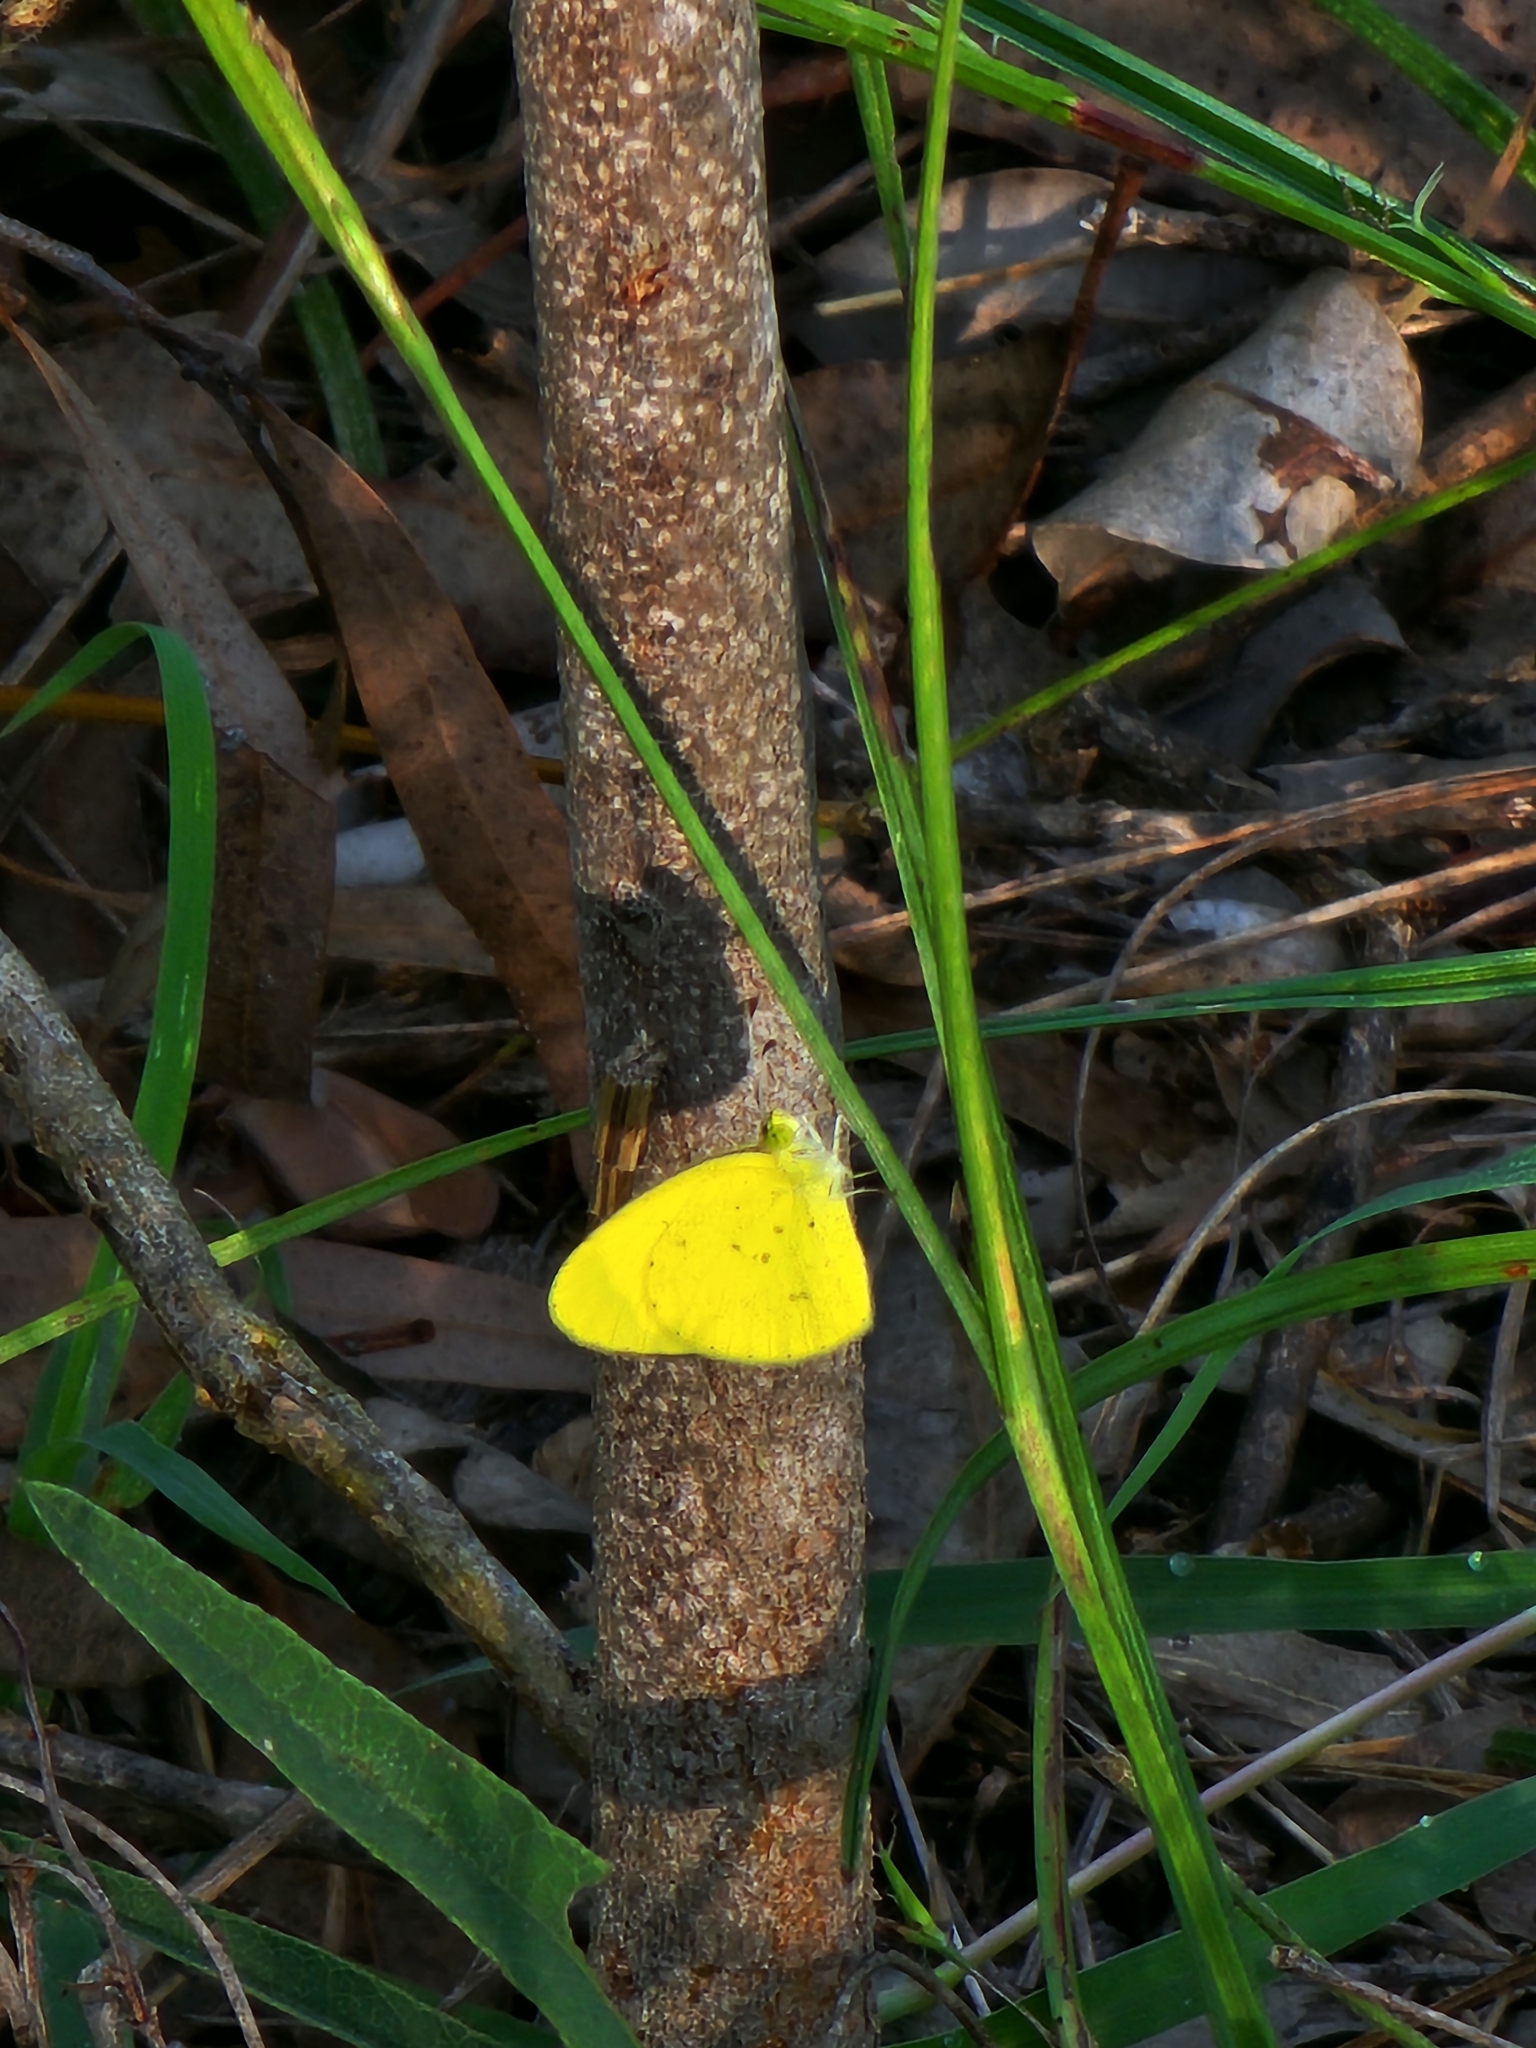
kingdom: Animalia
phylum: Arthropoda
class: Insecta
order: Lepidoptera
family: Pieridae
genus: Eurema
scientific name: Eurema smilax
